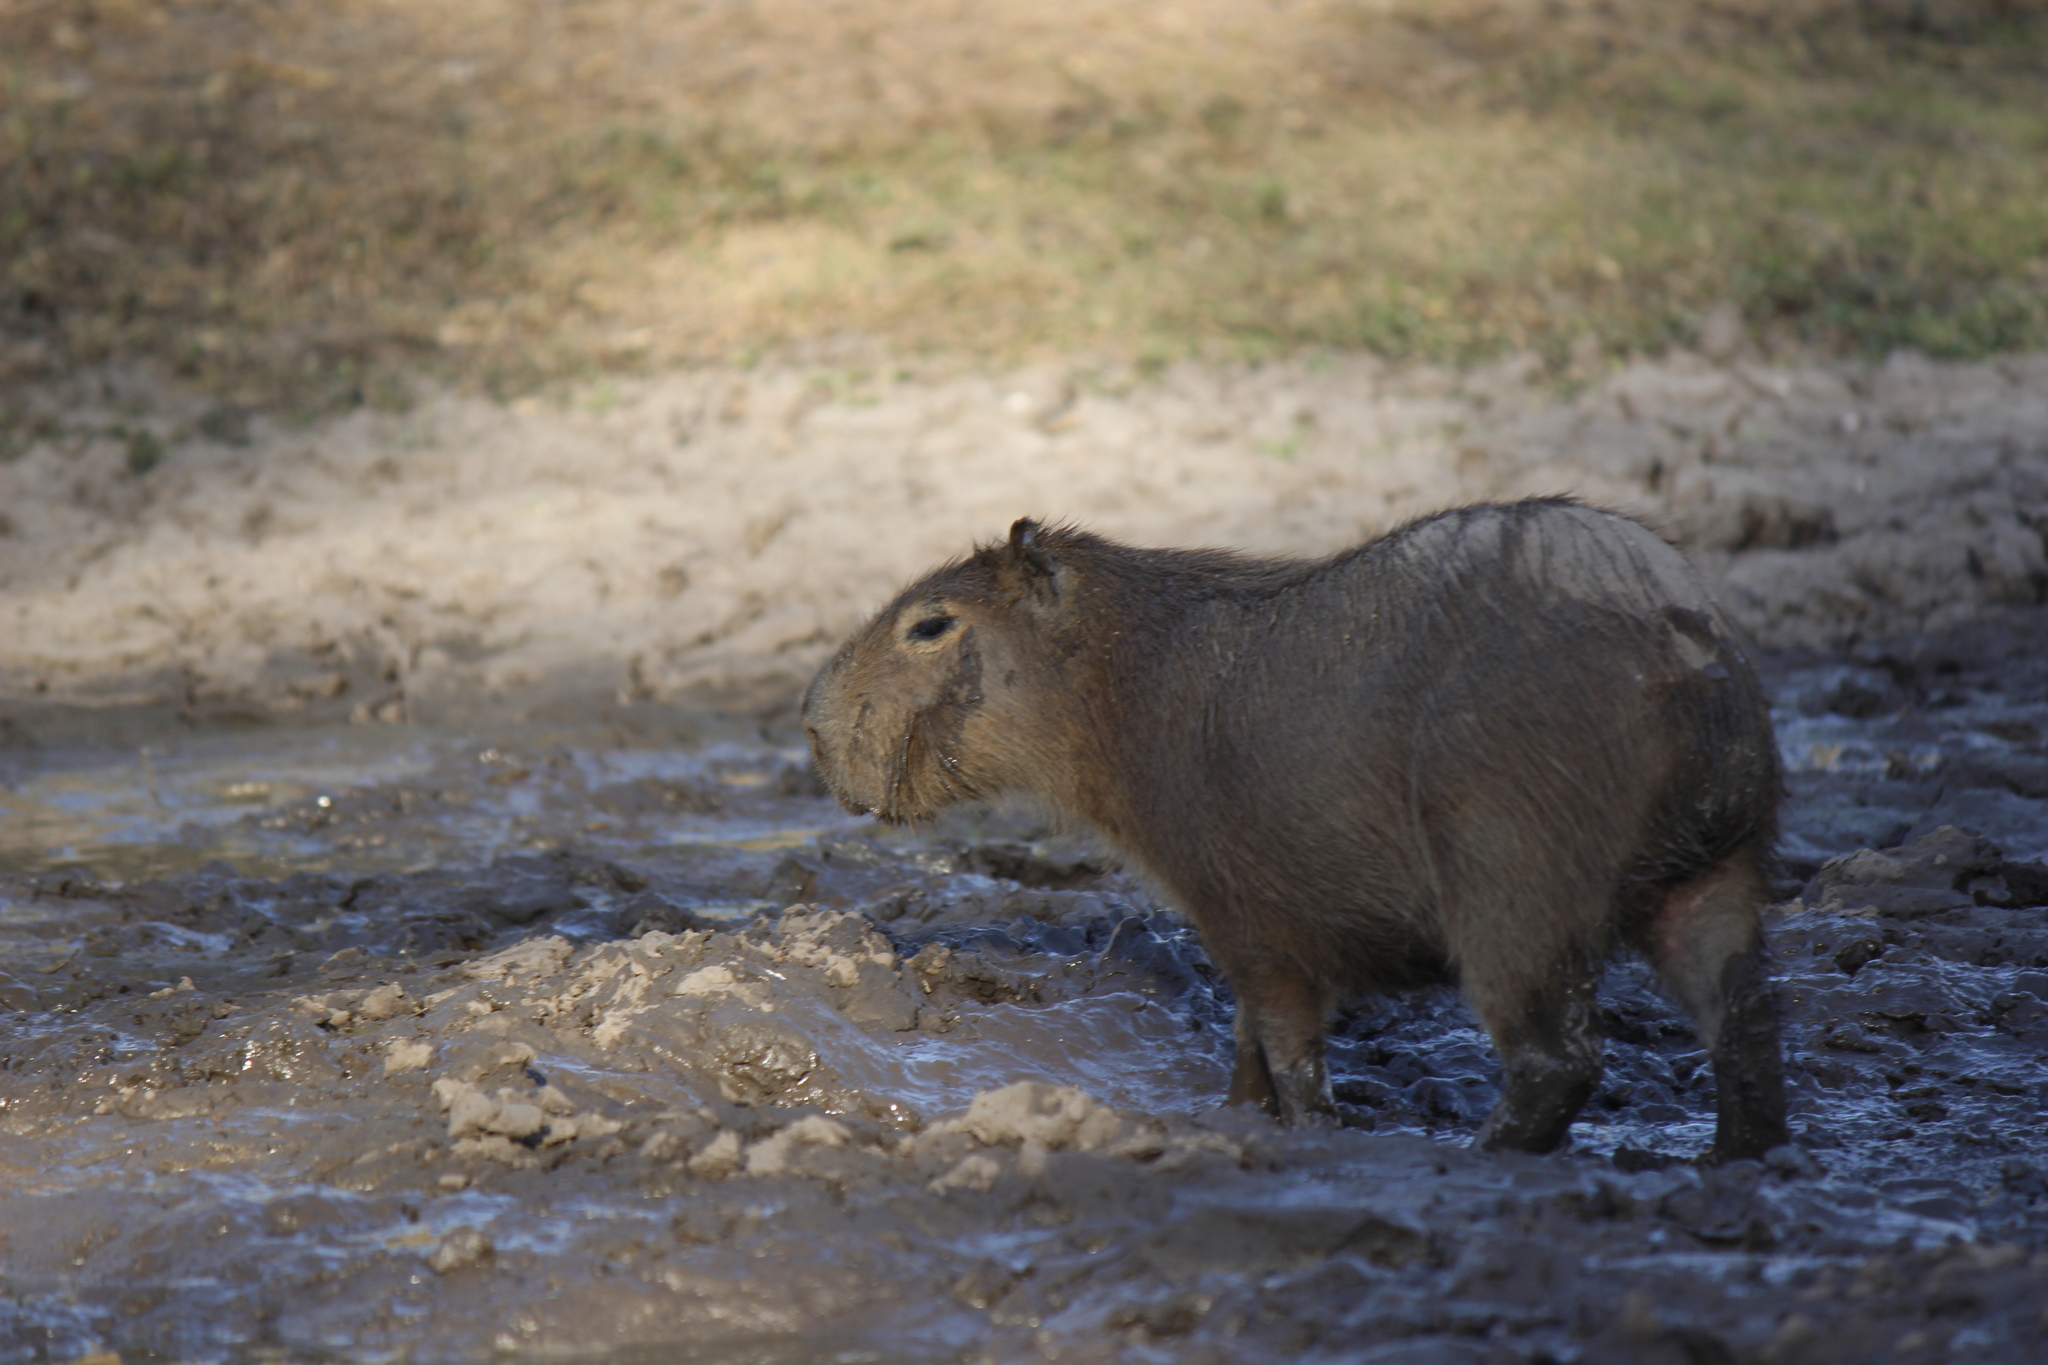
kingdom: Animalia
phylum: Chordata
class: Mammalia
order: Rodentia
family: Caviidae
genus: Hydrochoerus
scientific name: Hydrochoerus hydrochaeris
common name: Capybara
